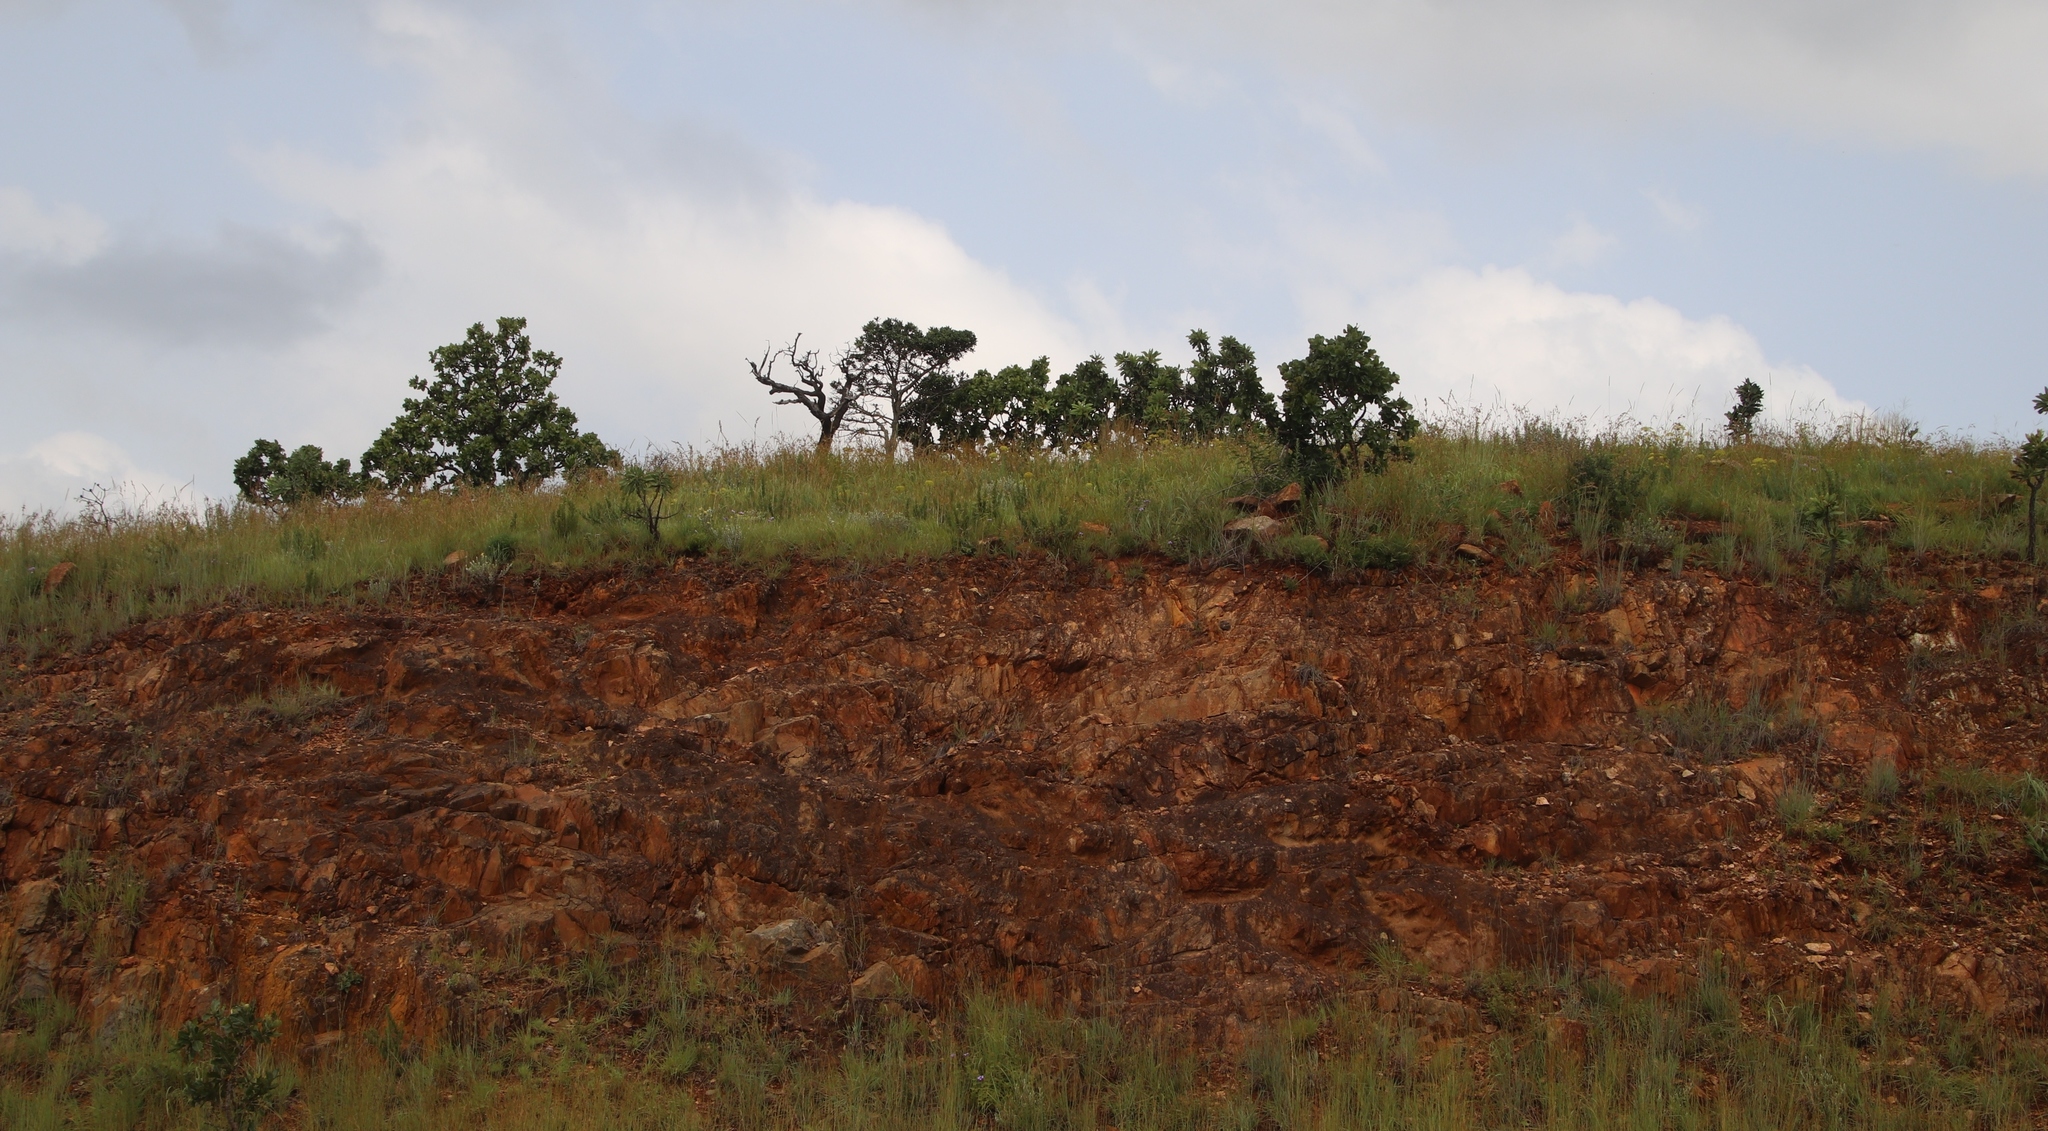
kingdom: Plantae
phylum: Tracheophyta
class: Magnoliopsida
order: Proteales
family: Proteaceae
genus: Faurea
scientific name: Faurea rochetiana
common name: Broad-leaved beech
